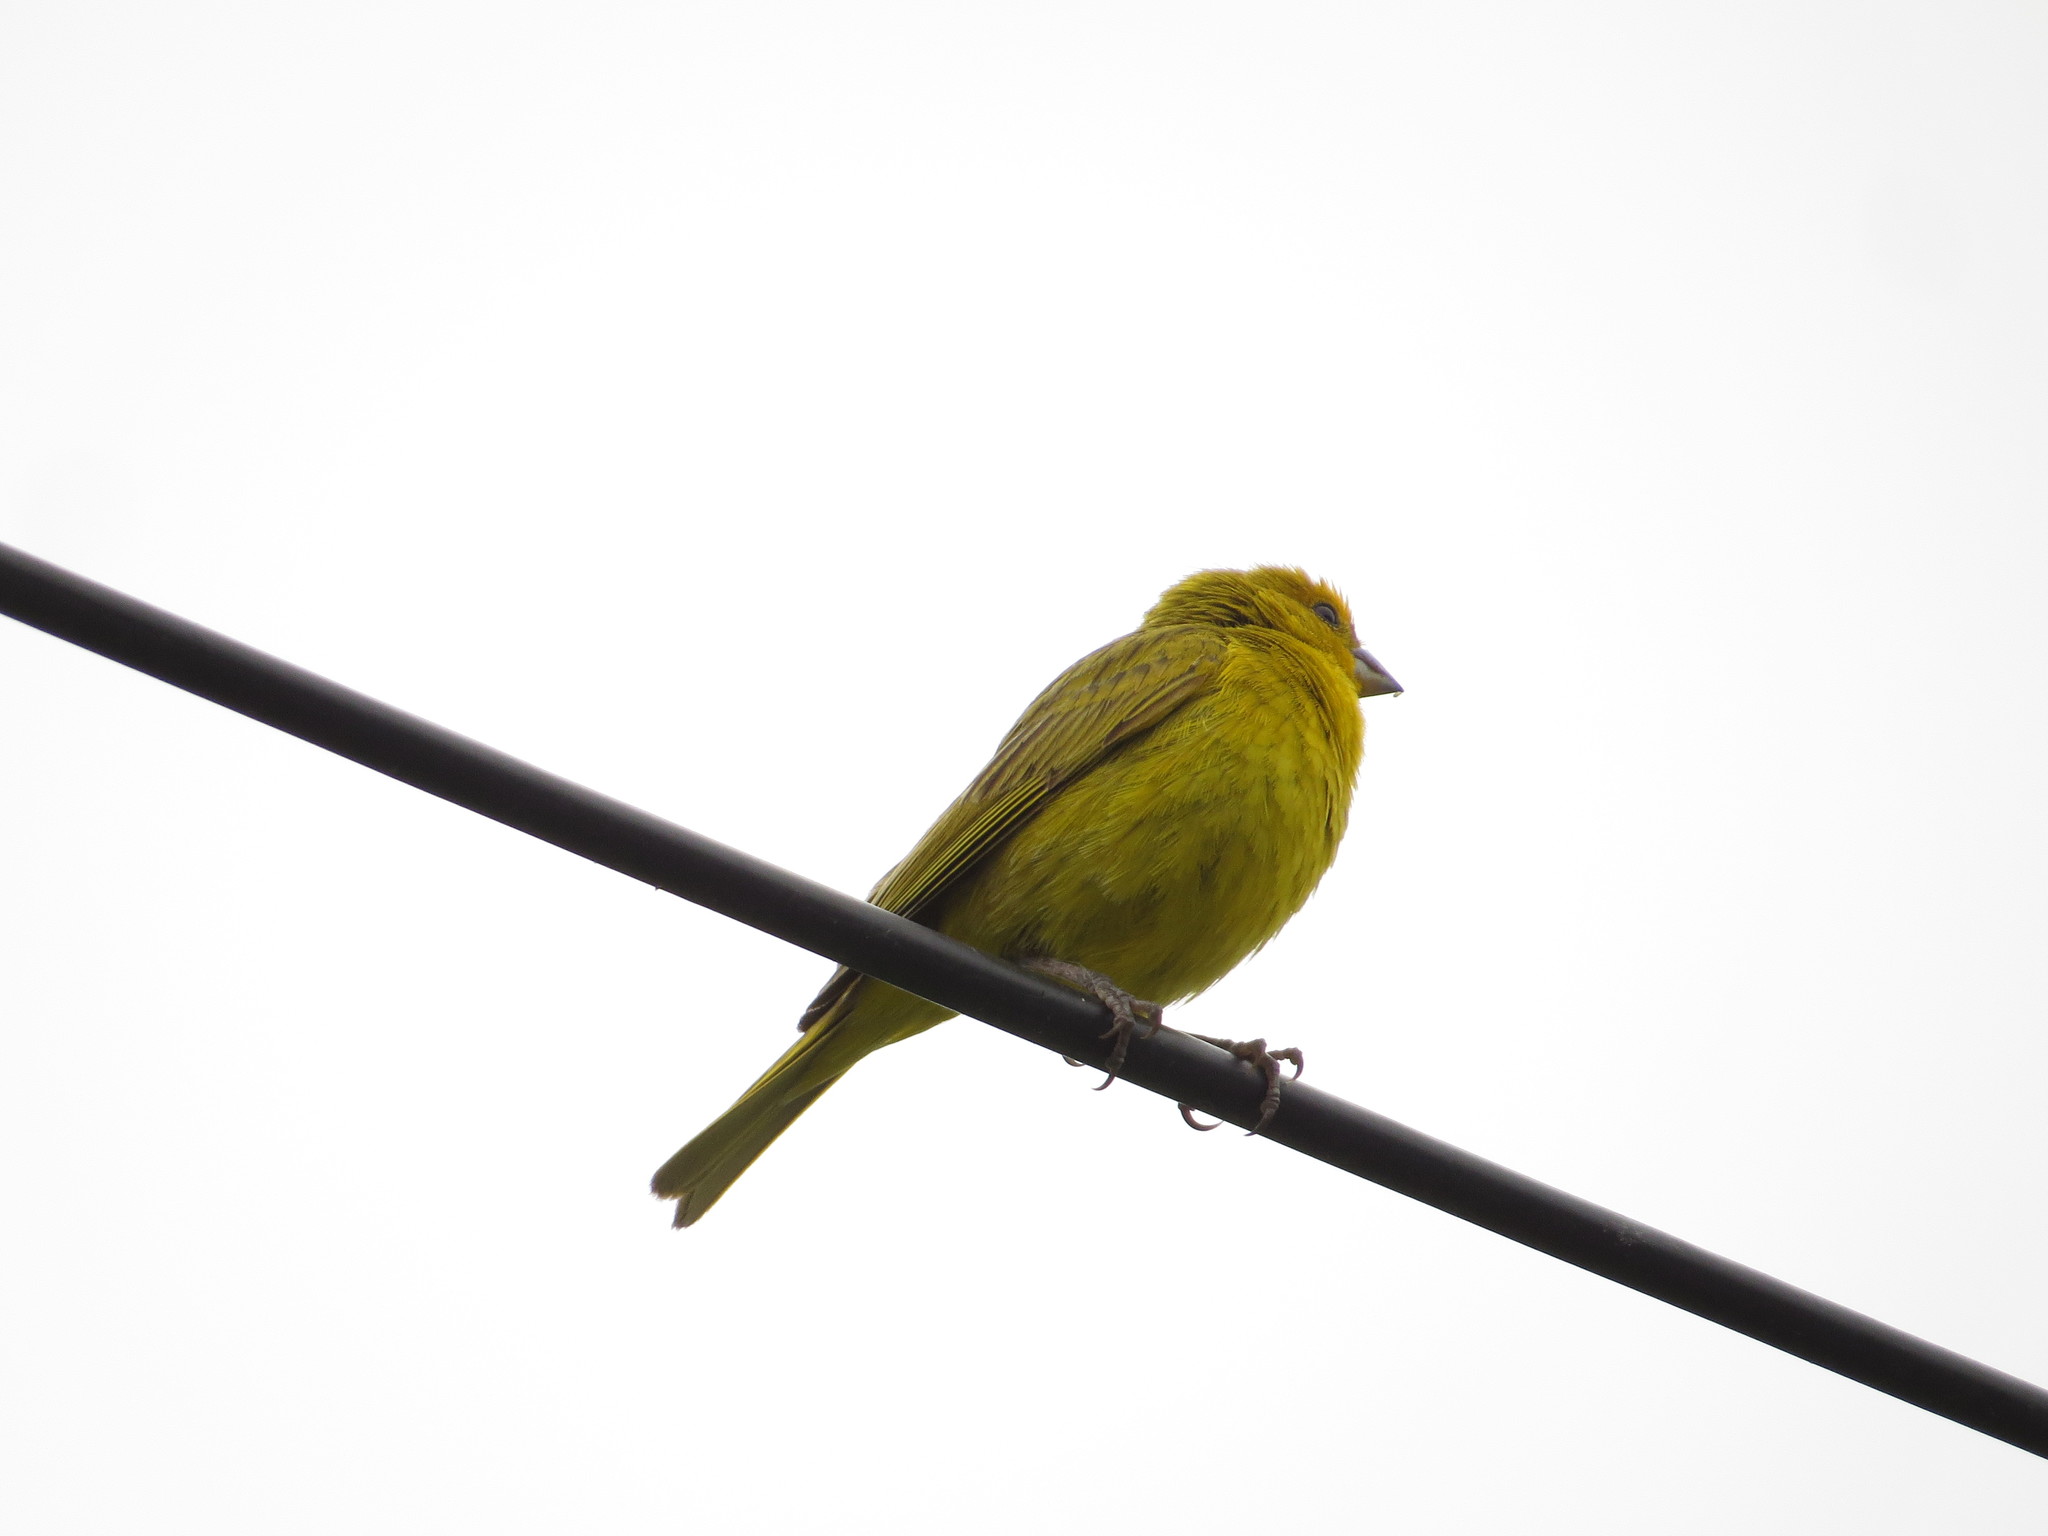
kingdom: Animalia
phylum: Chordata
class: Aves
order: Passeriformes
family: Thraupidae
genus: Sicalis
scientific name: Sicalis flaveola
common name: Saffron finch
